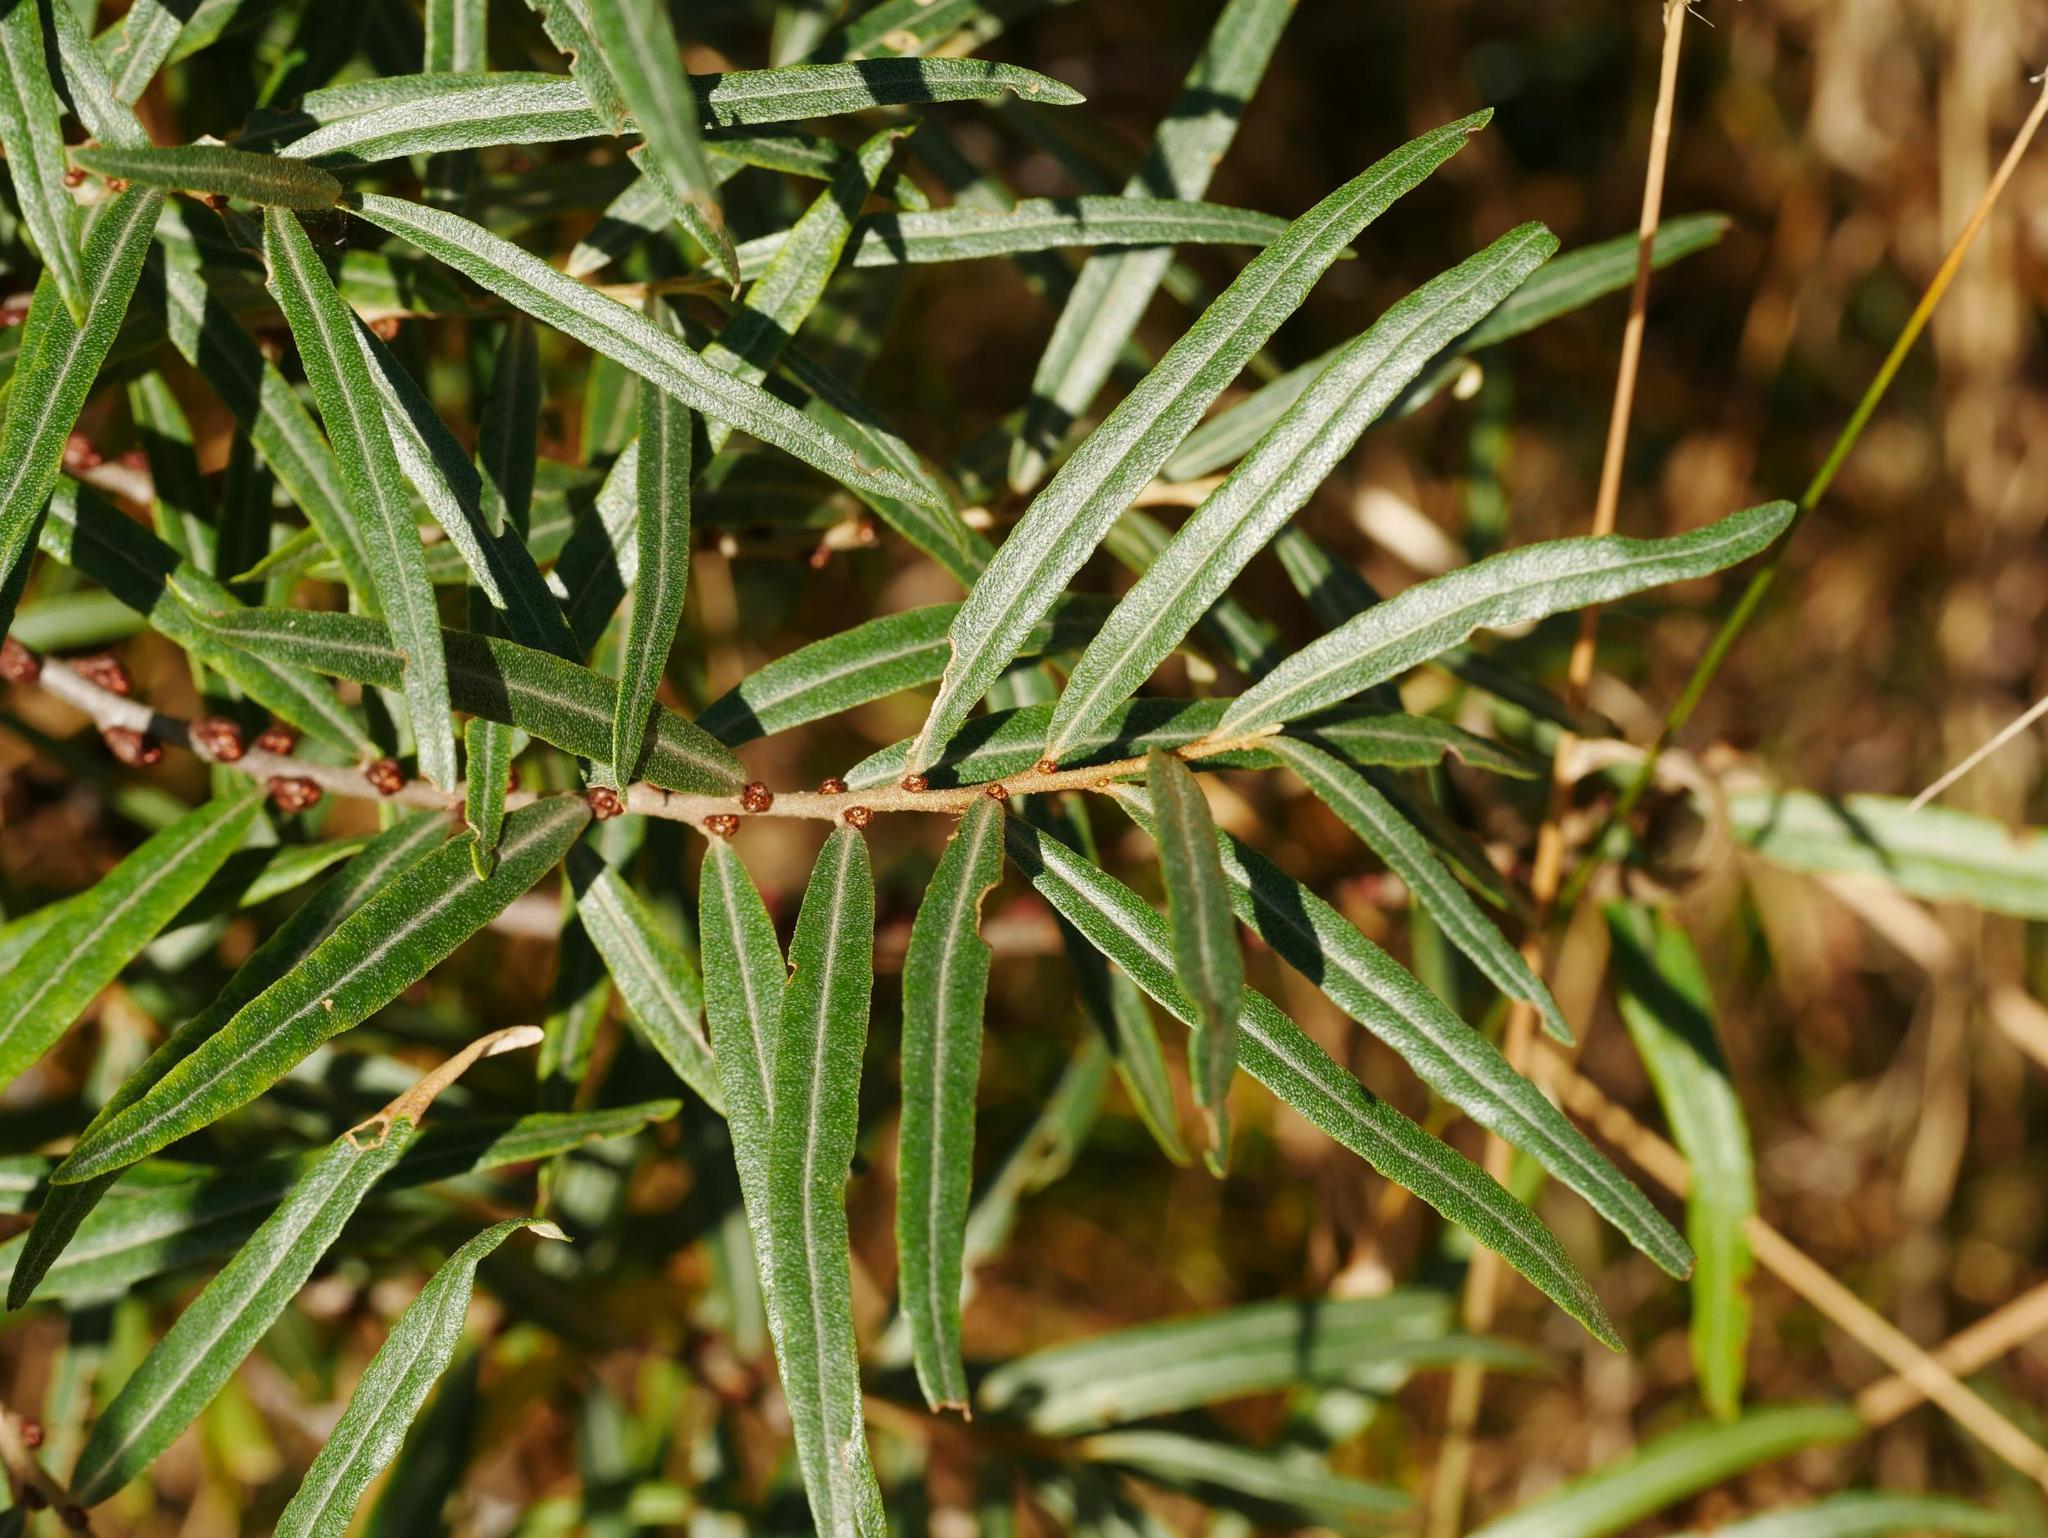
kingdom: Plantae
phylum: Tracheophyta
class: Magnoliopsida
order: Rosales
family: Elaeagnaceae
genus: Hippophae
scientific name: Hippophae rhamnoides
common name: Sea-buckthorn
